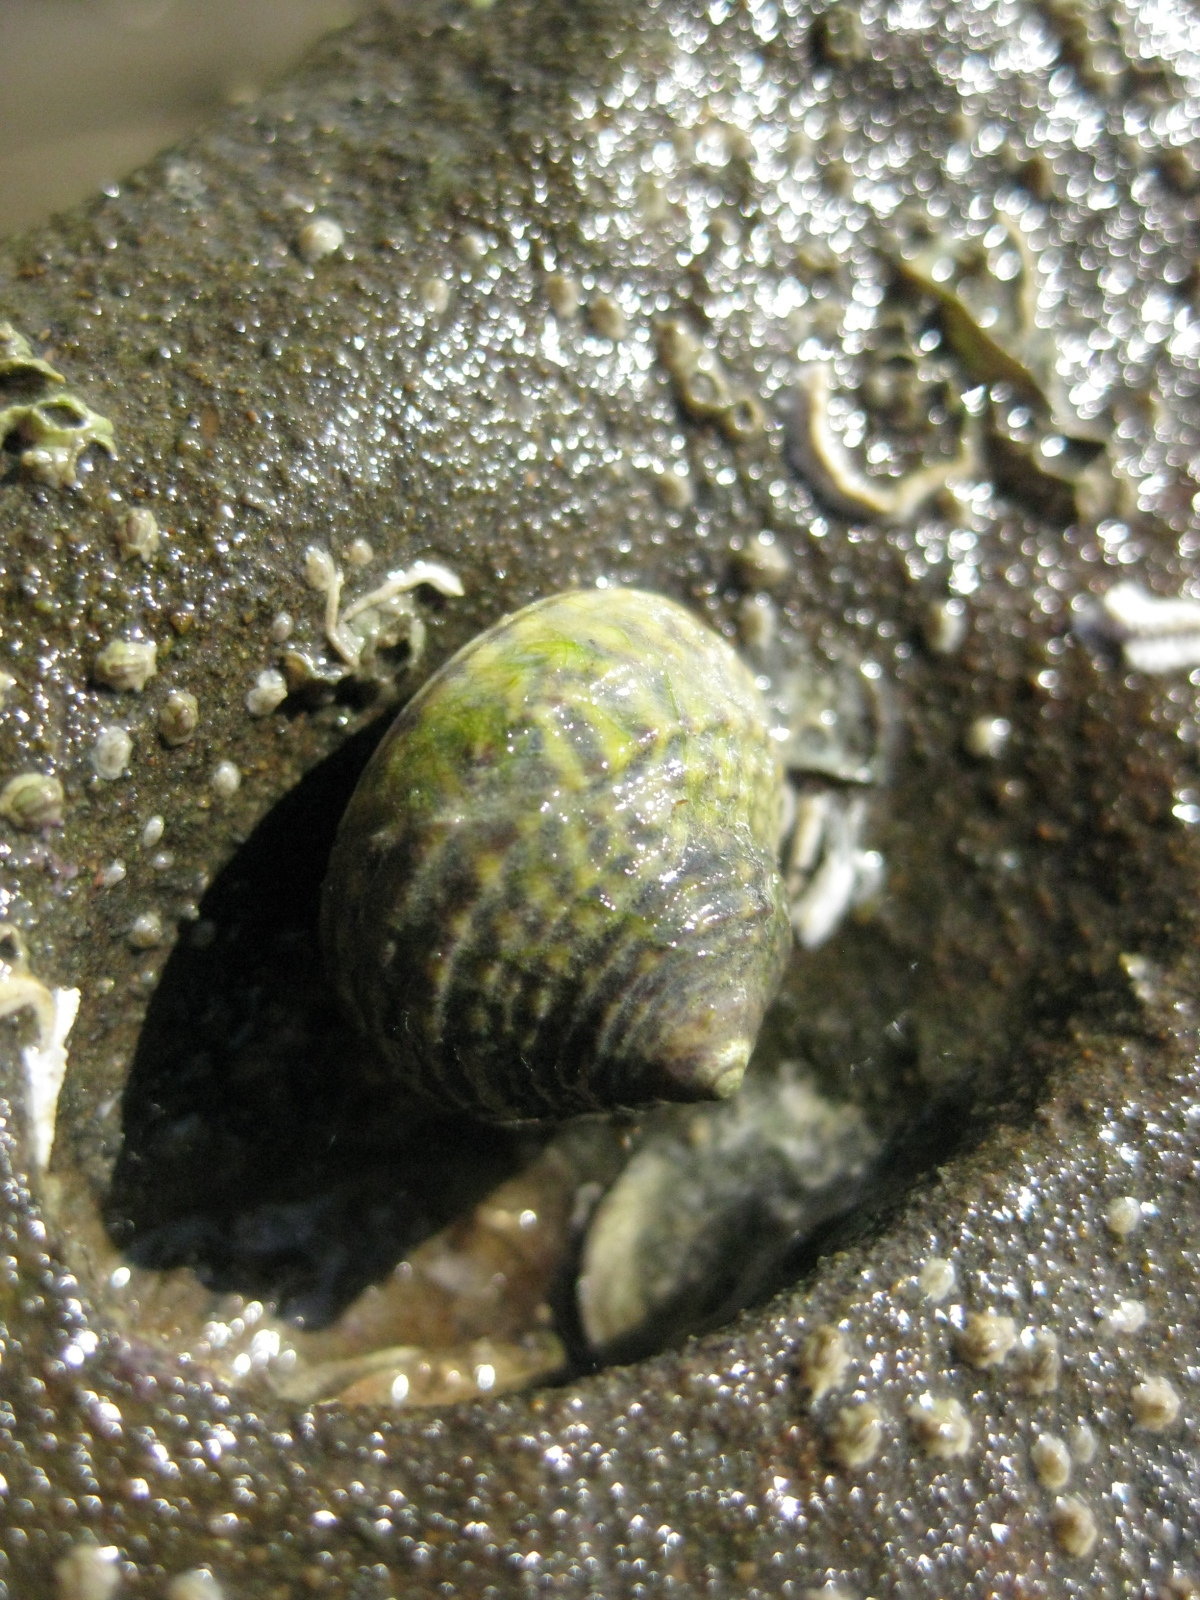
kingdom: Animalia
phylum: Mollusca
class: Gastropoda
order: Trochida
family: Trochidae
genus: Diloma
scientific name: Diloma subrostratum
